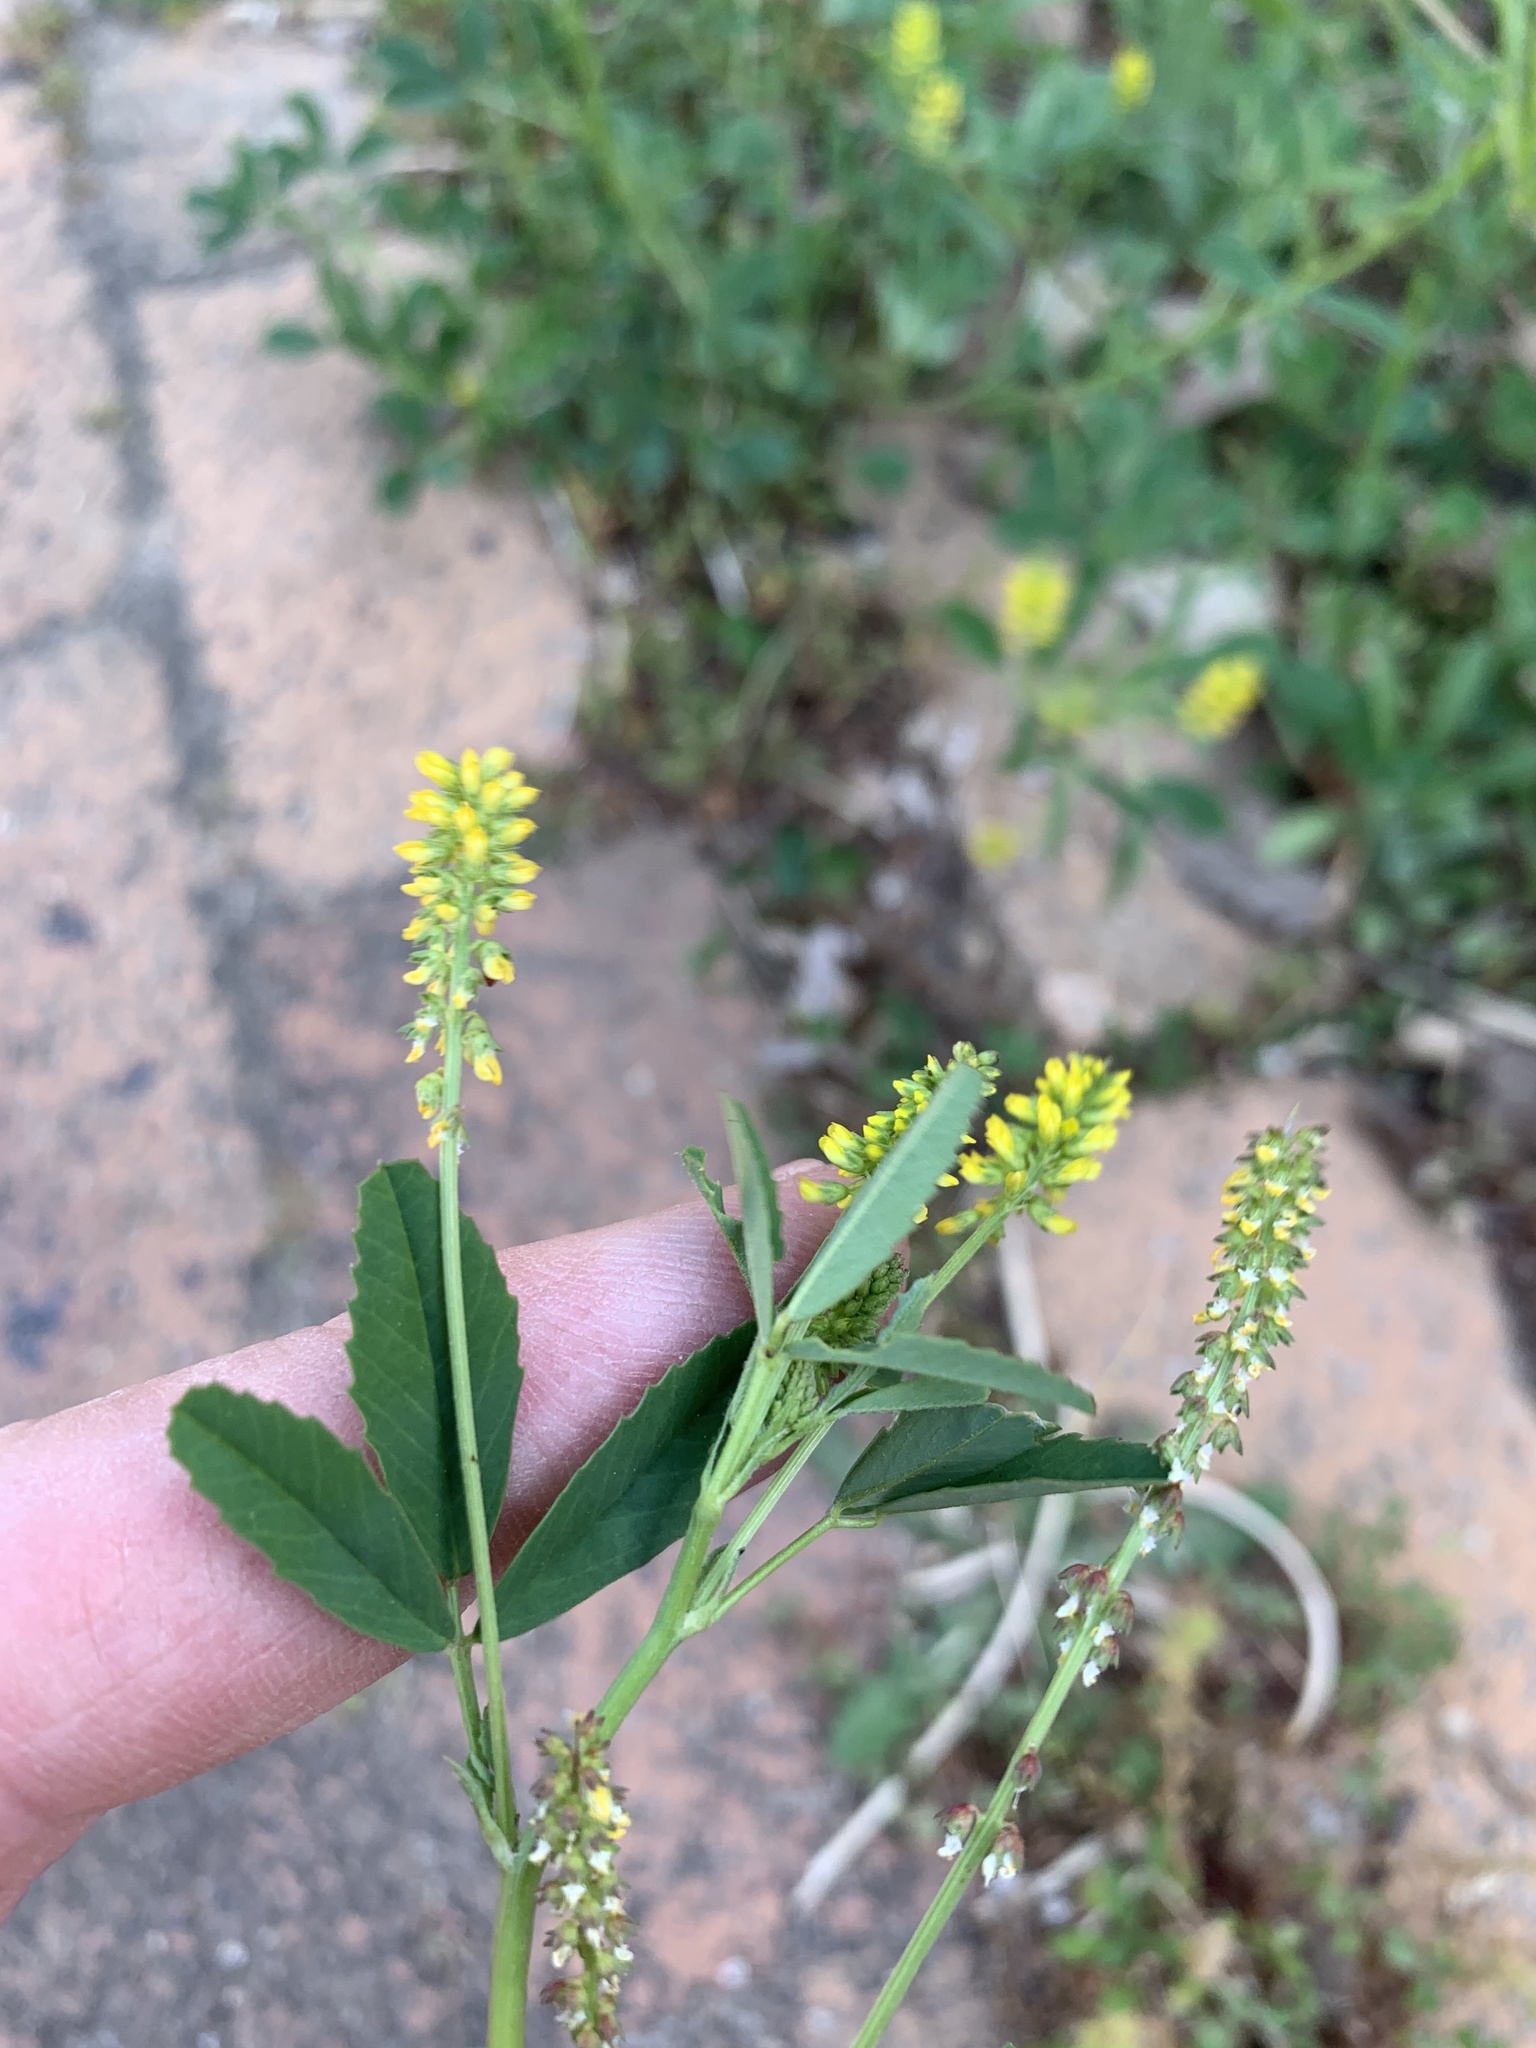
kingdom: Plantae
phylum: Tracheophyta
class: Magnoliopsida
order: Fabales
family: Fabaceae
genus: Melilotus
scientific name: Melilotus indicus
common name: Small melilot
